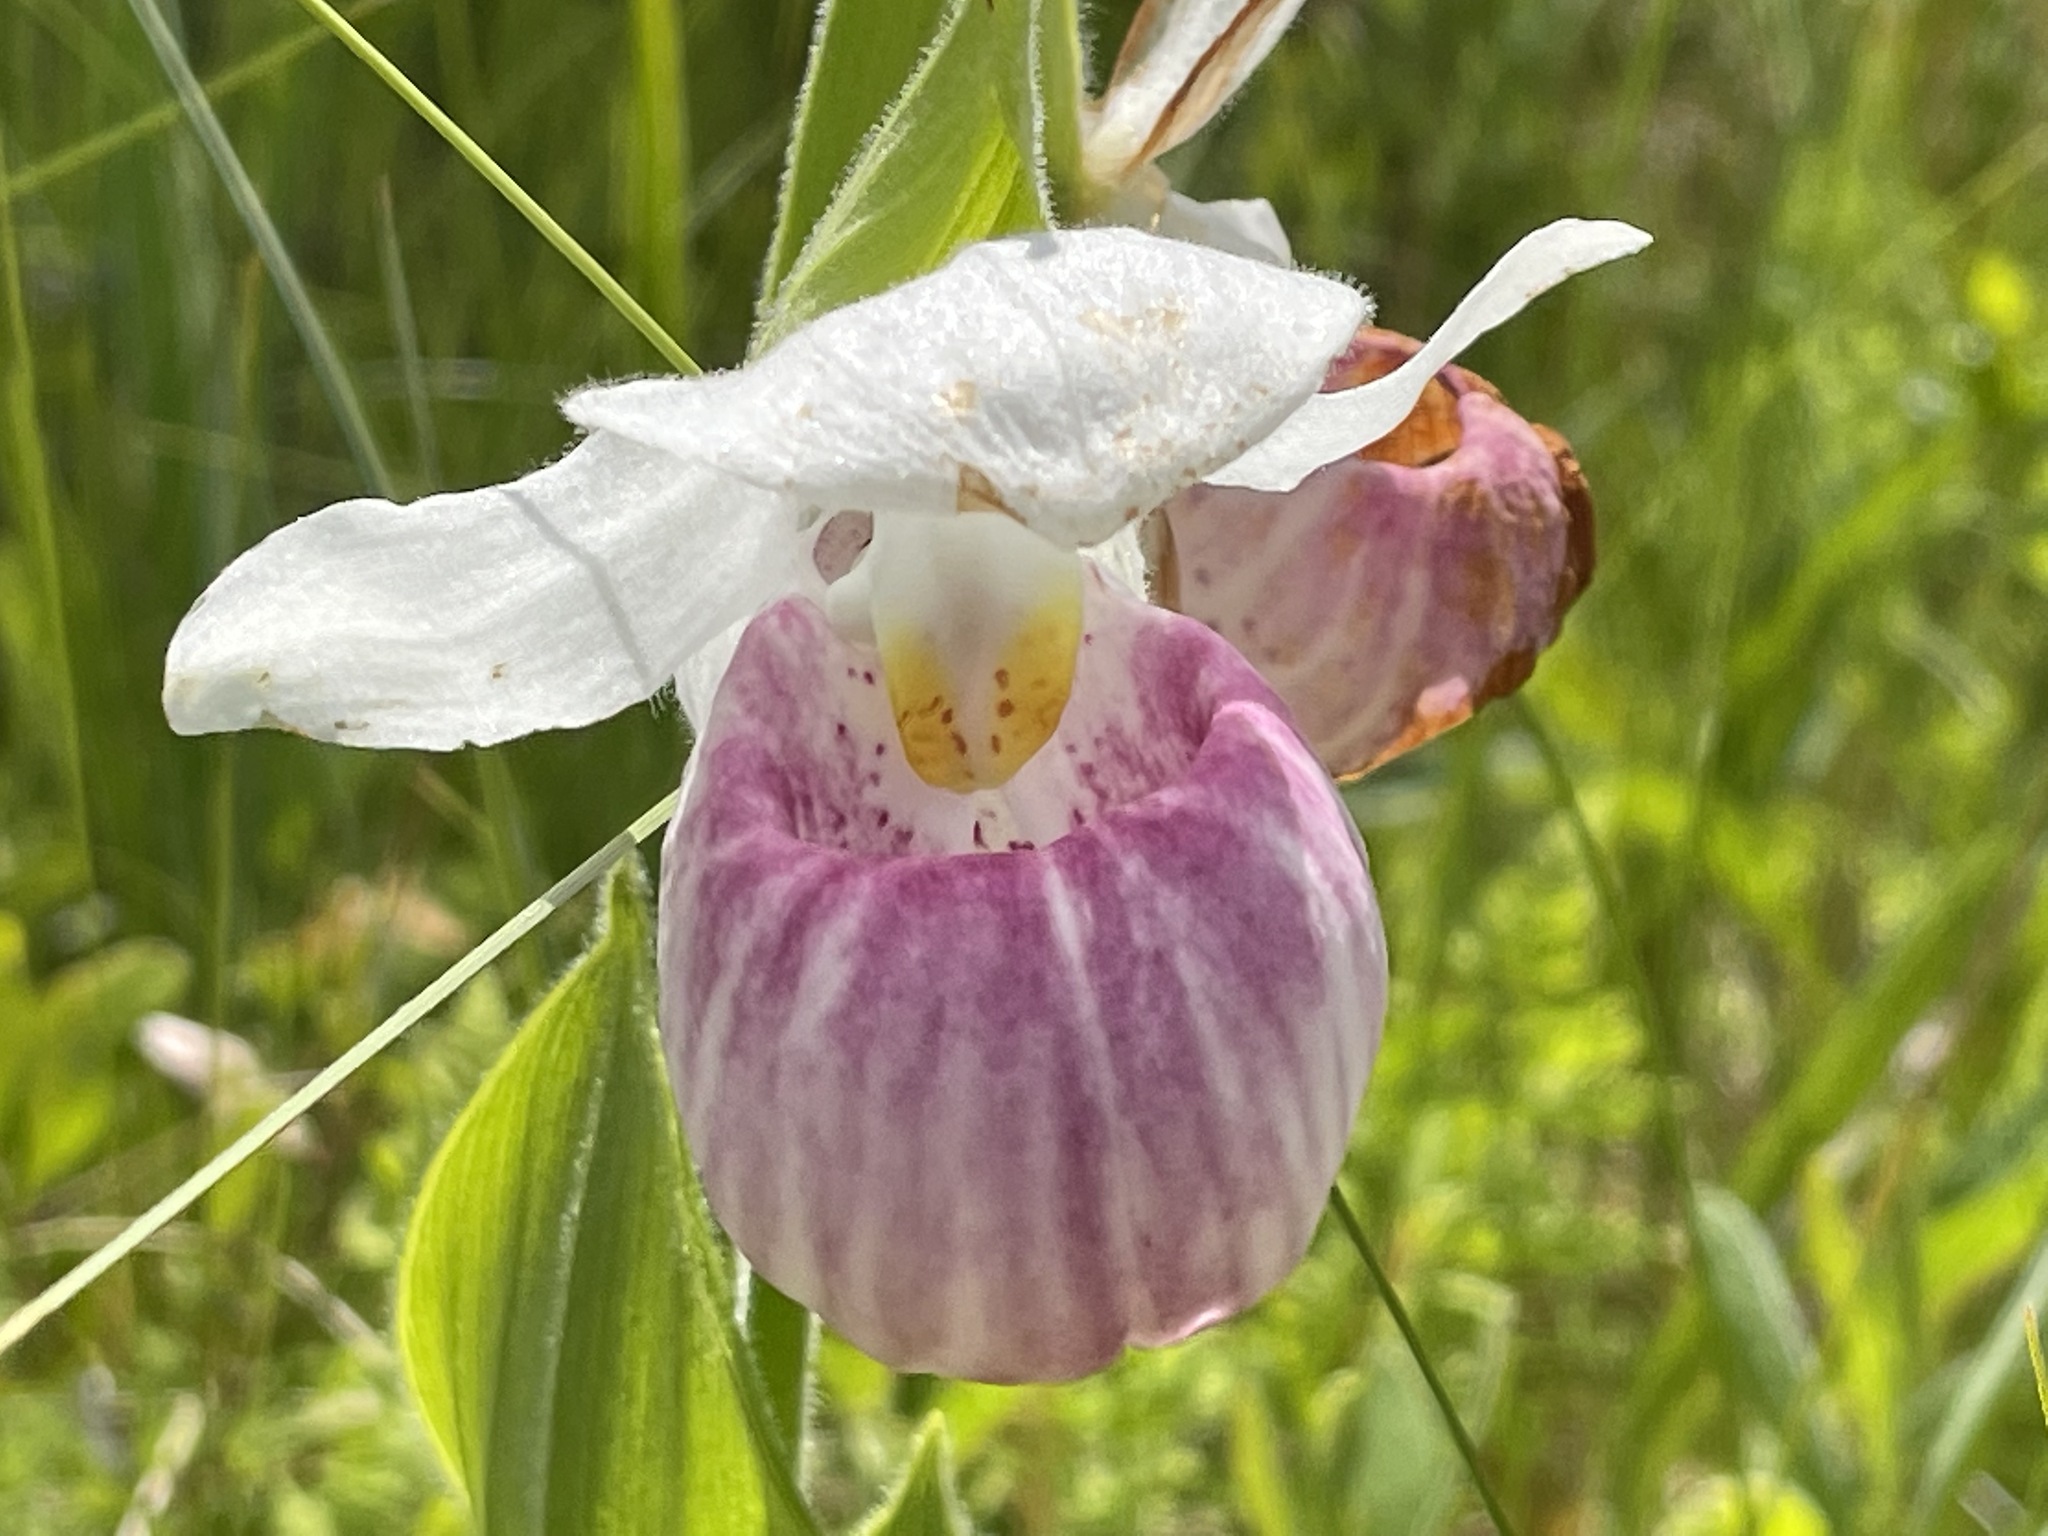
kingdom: Plantae
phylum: Tracheophyta
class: Liliopsida
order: Asparagales
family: Orchidaceae
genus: Cypripedium
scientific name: Cypripedium reginae
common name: Queen lady's-slipper
